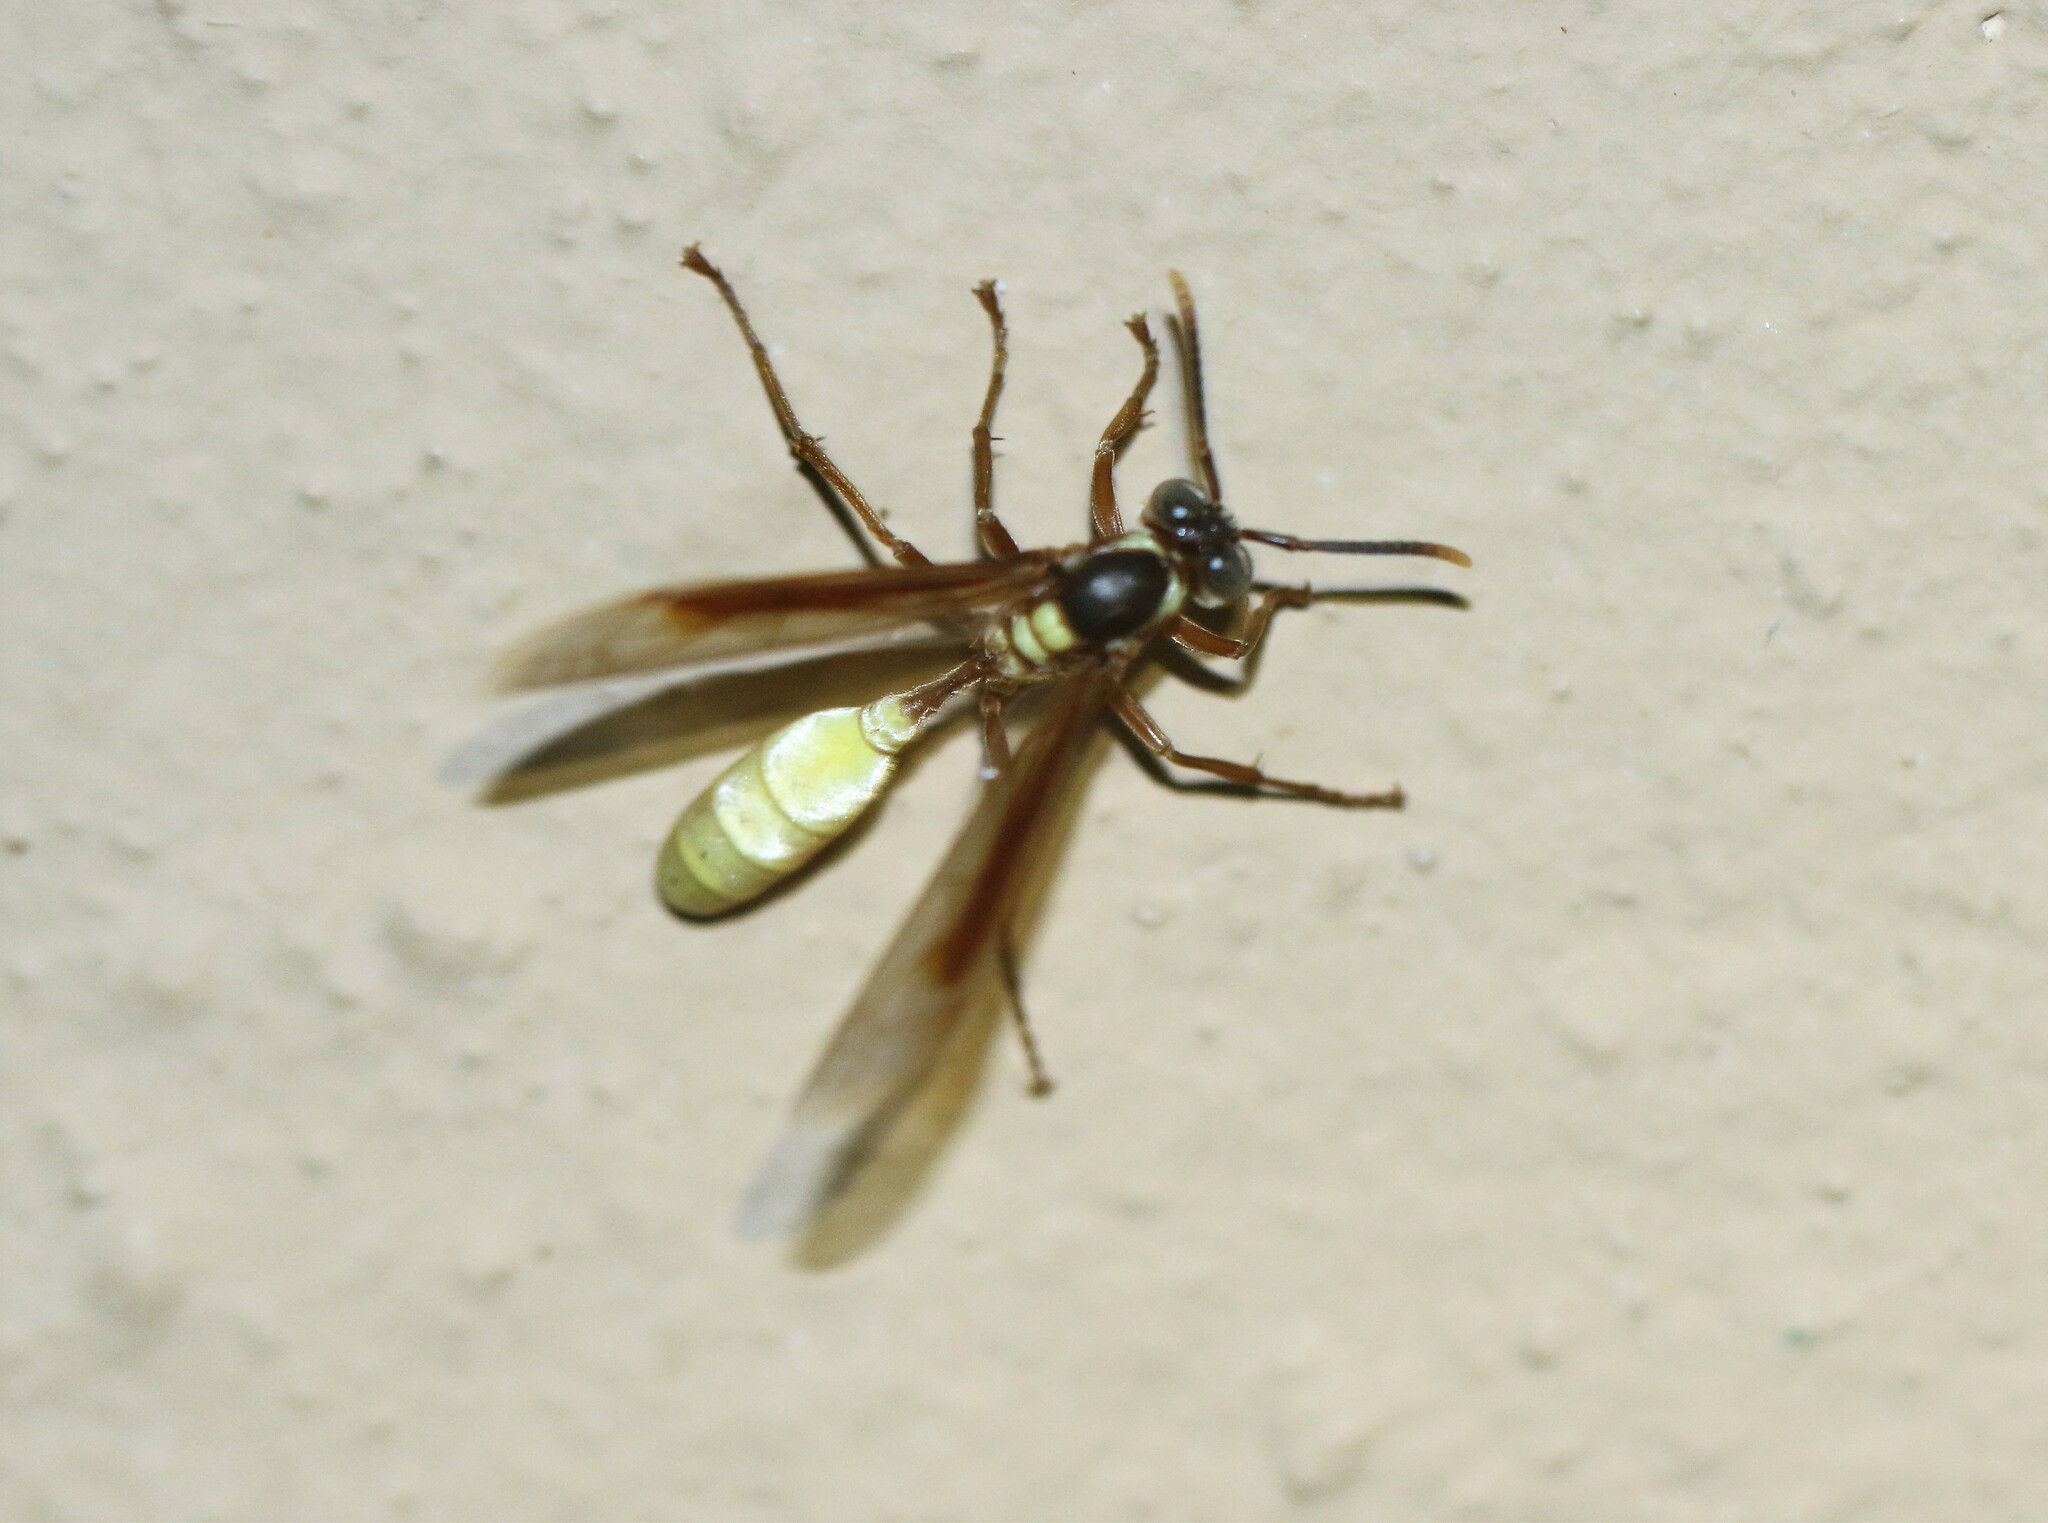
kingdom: Animalia
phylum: Arthropoda
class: Insecta
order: Hymenoptera
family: Vespidae
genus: Apoica
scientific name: Apoica pallens
